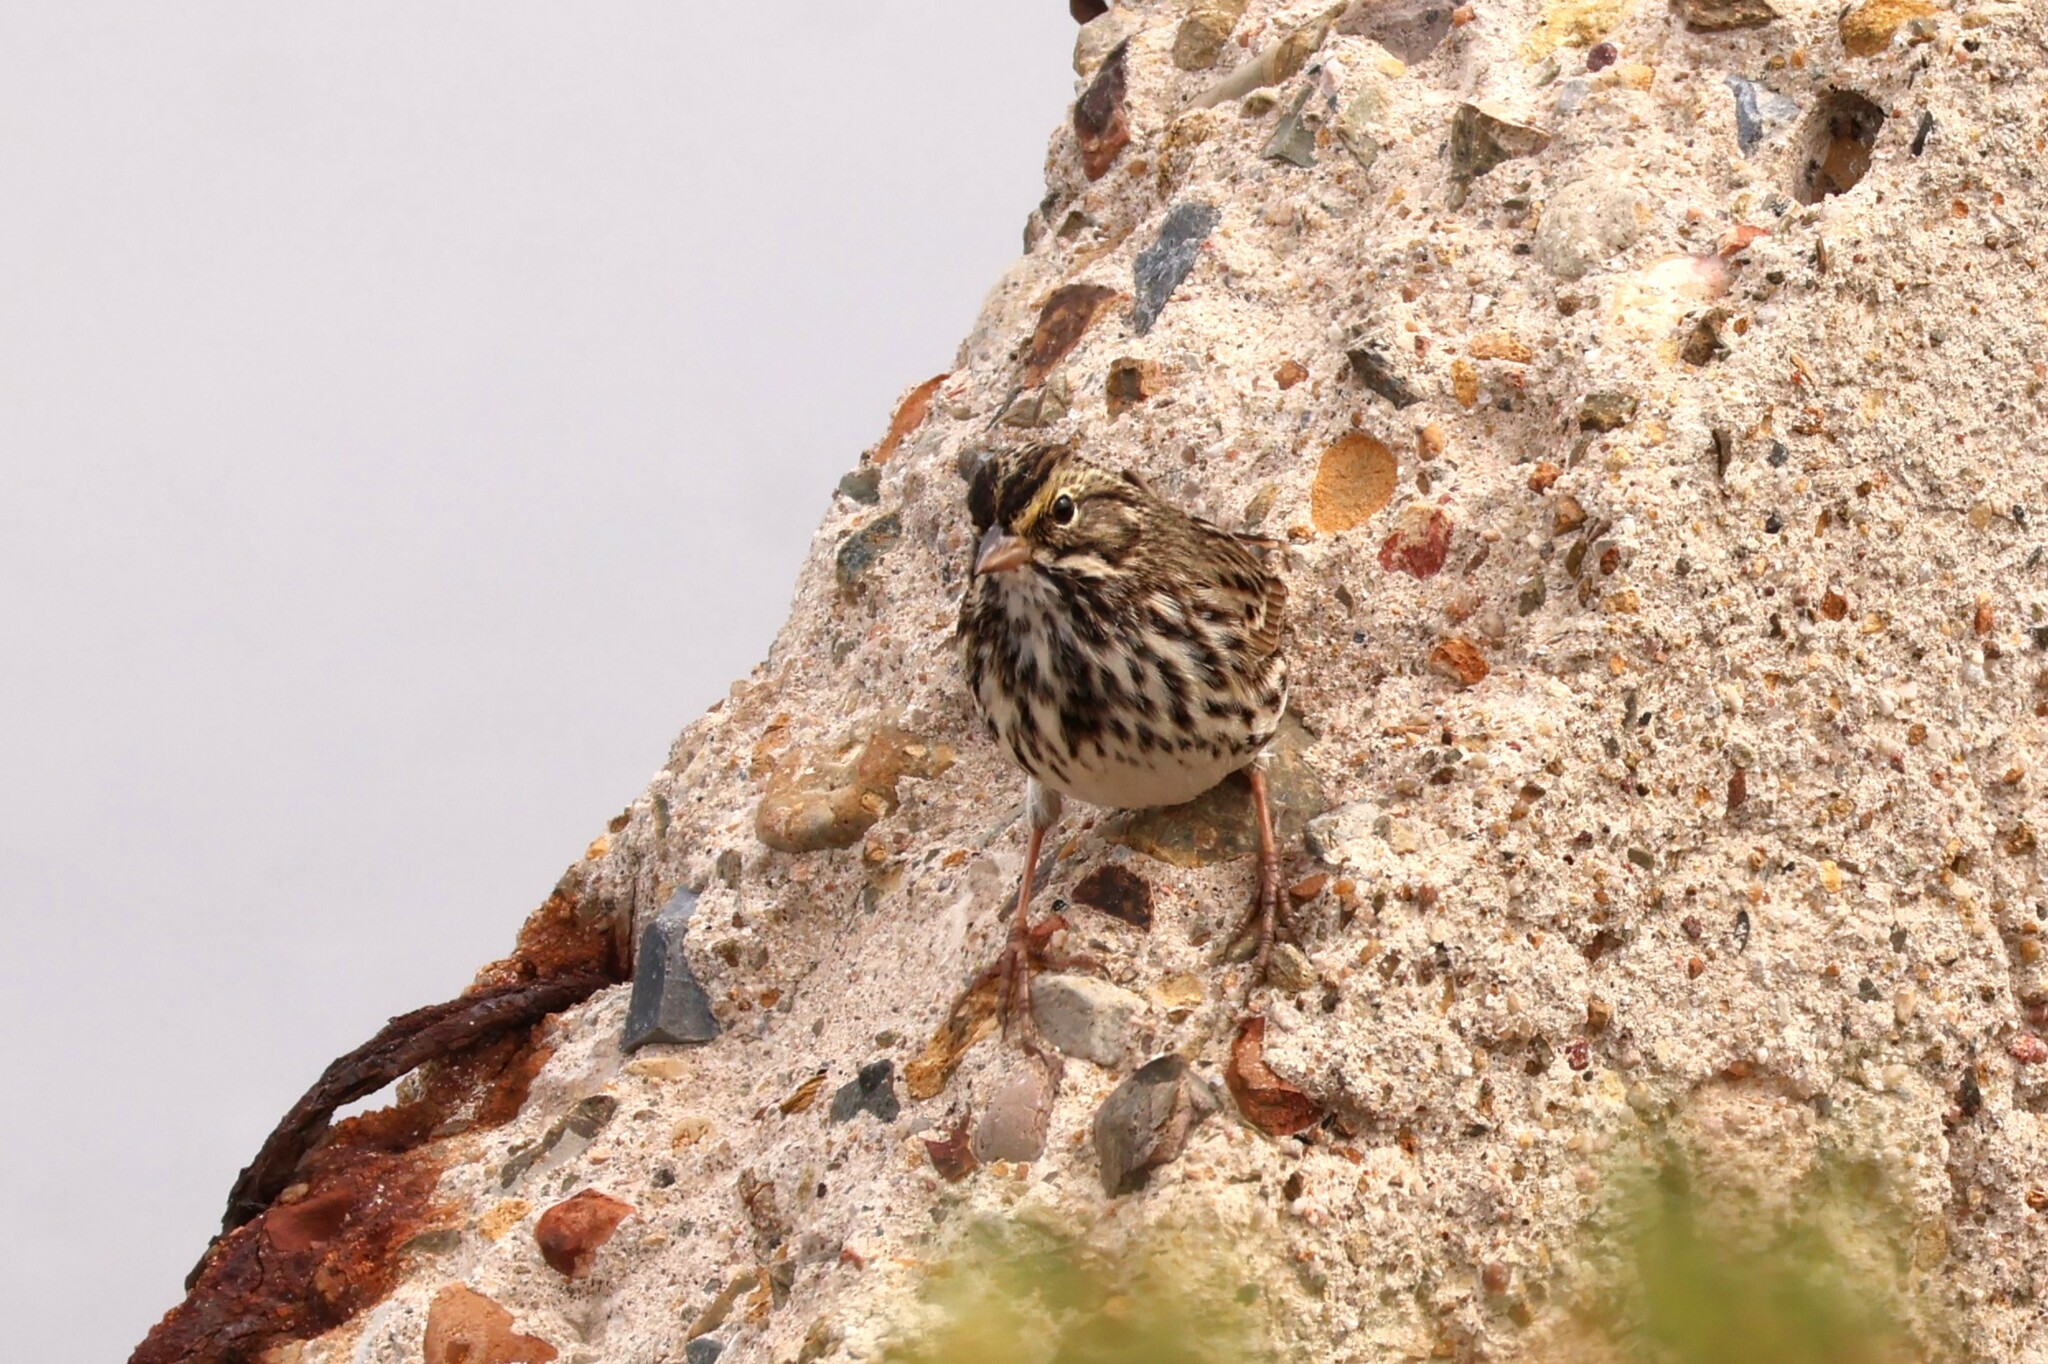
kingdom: Animalia
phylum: Chordata
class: Aves
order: Passeriformes
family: Passerellidae
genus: Passerculus
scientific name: Passerculus sandwichensis
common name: Savannah sparrow
